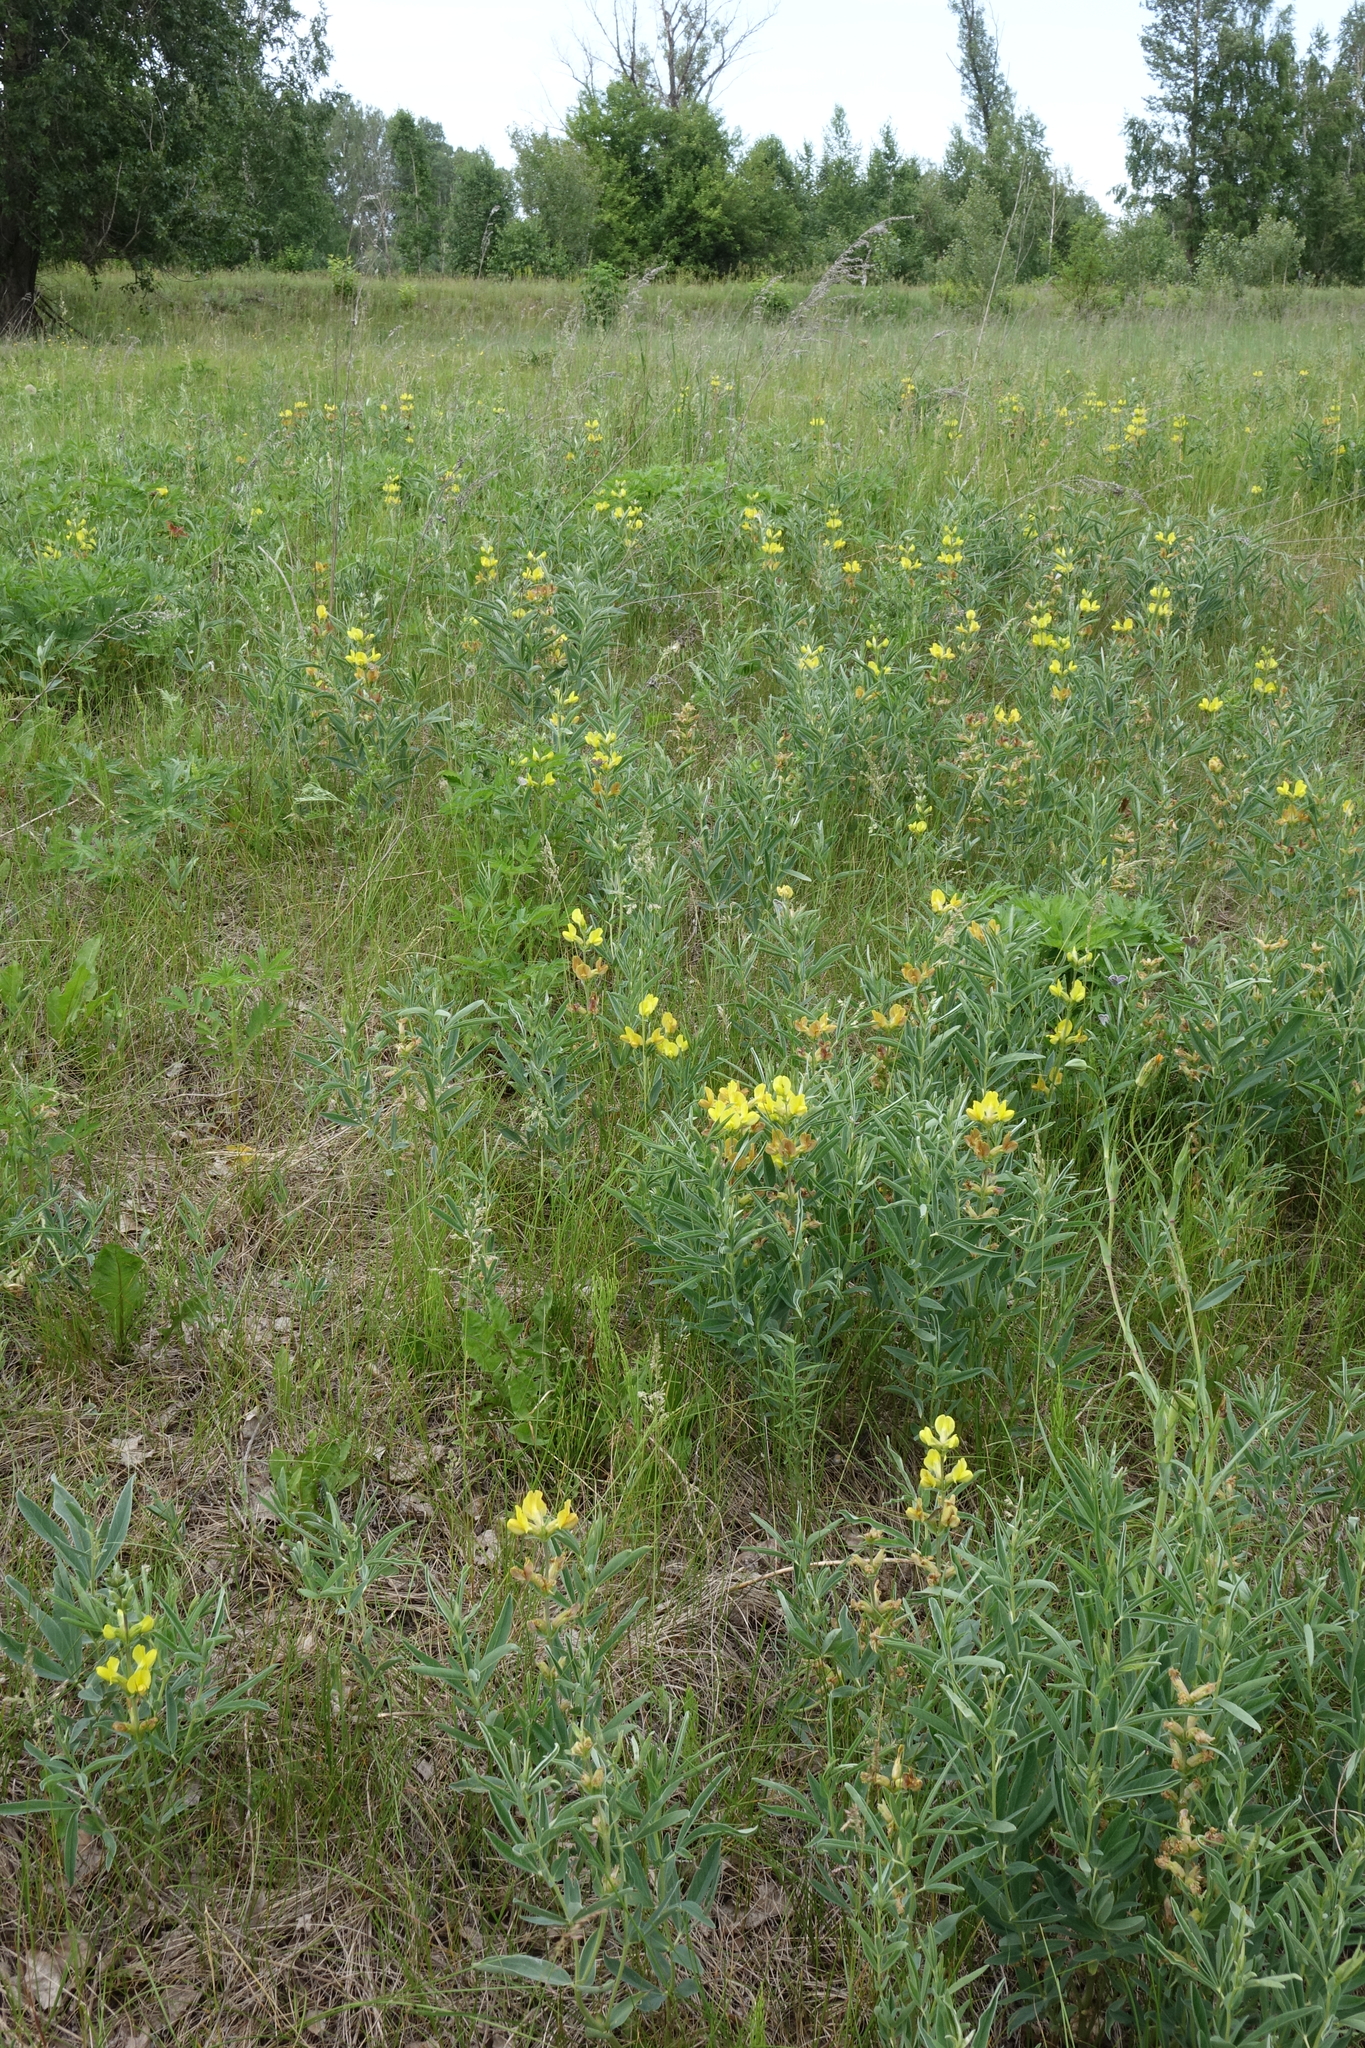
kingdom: Plantae
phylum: Tracheophyta
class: Magnoliopsida
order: Fabales
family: Fabaceae
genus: Thermopsis
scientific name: Thermopsis lanceolata
